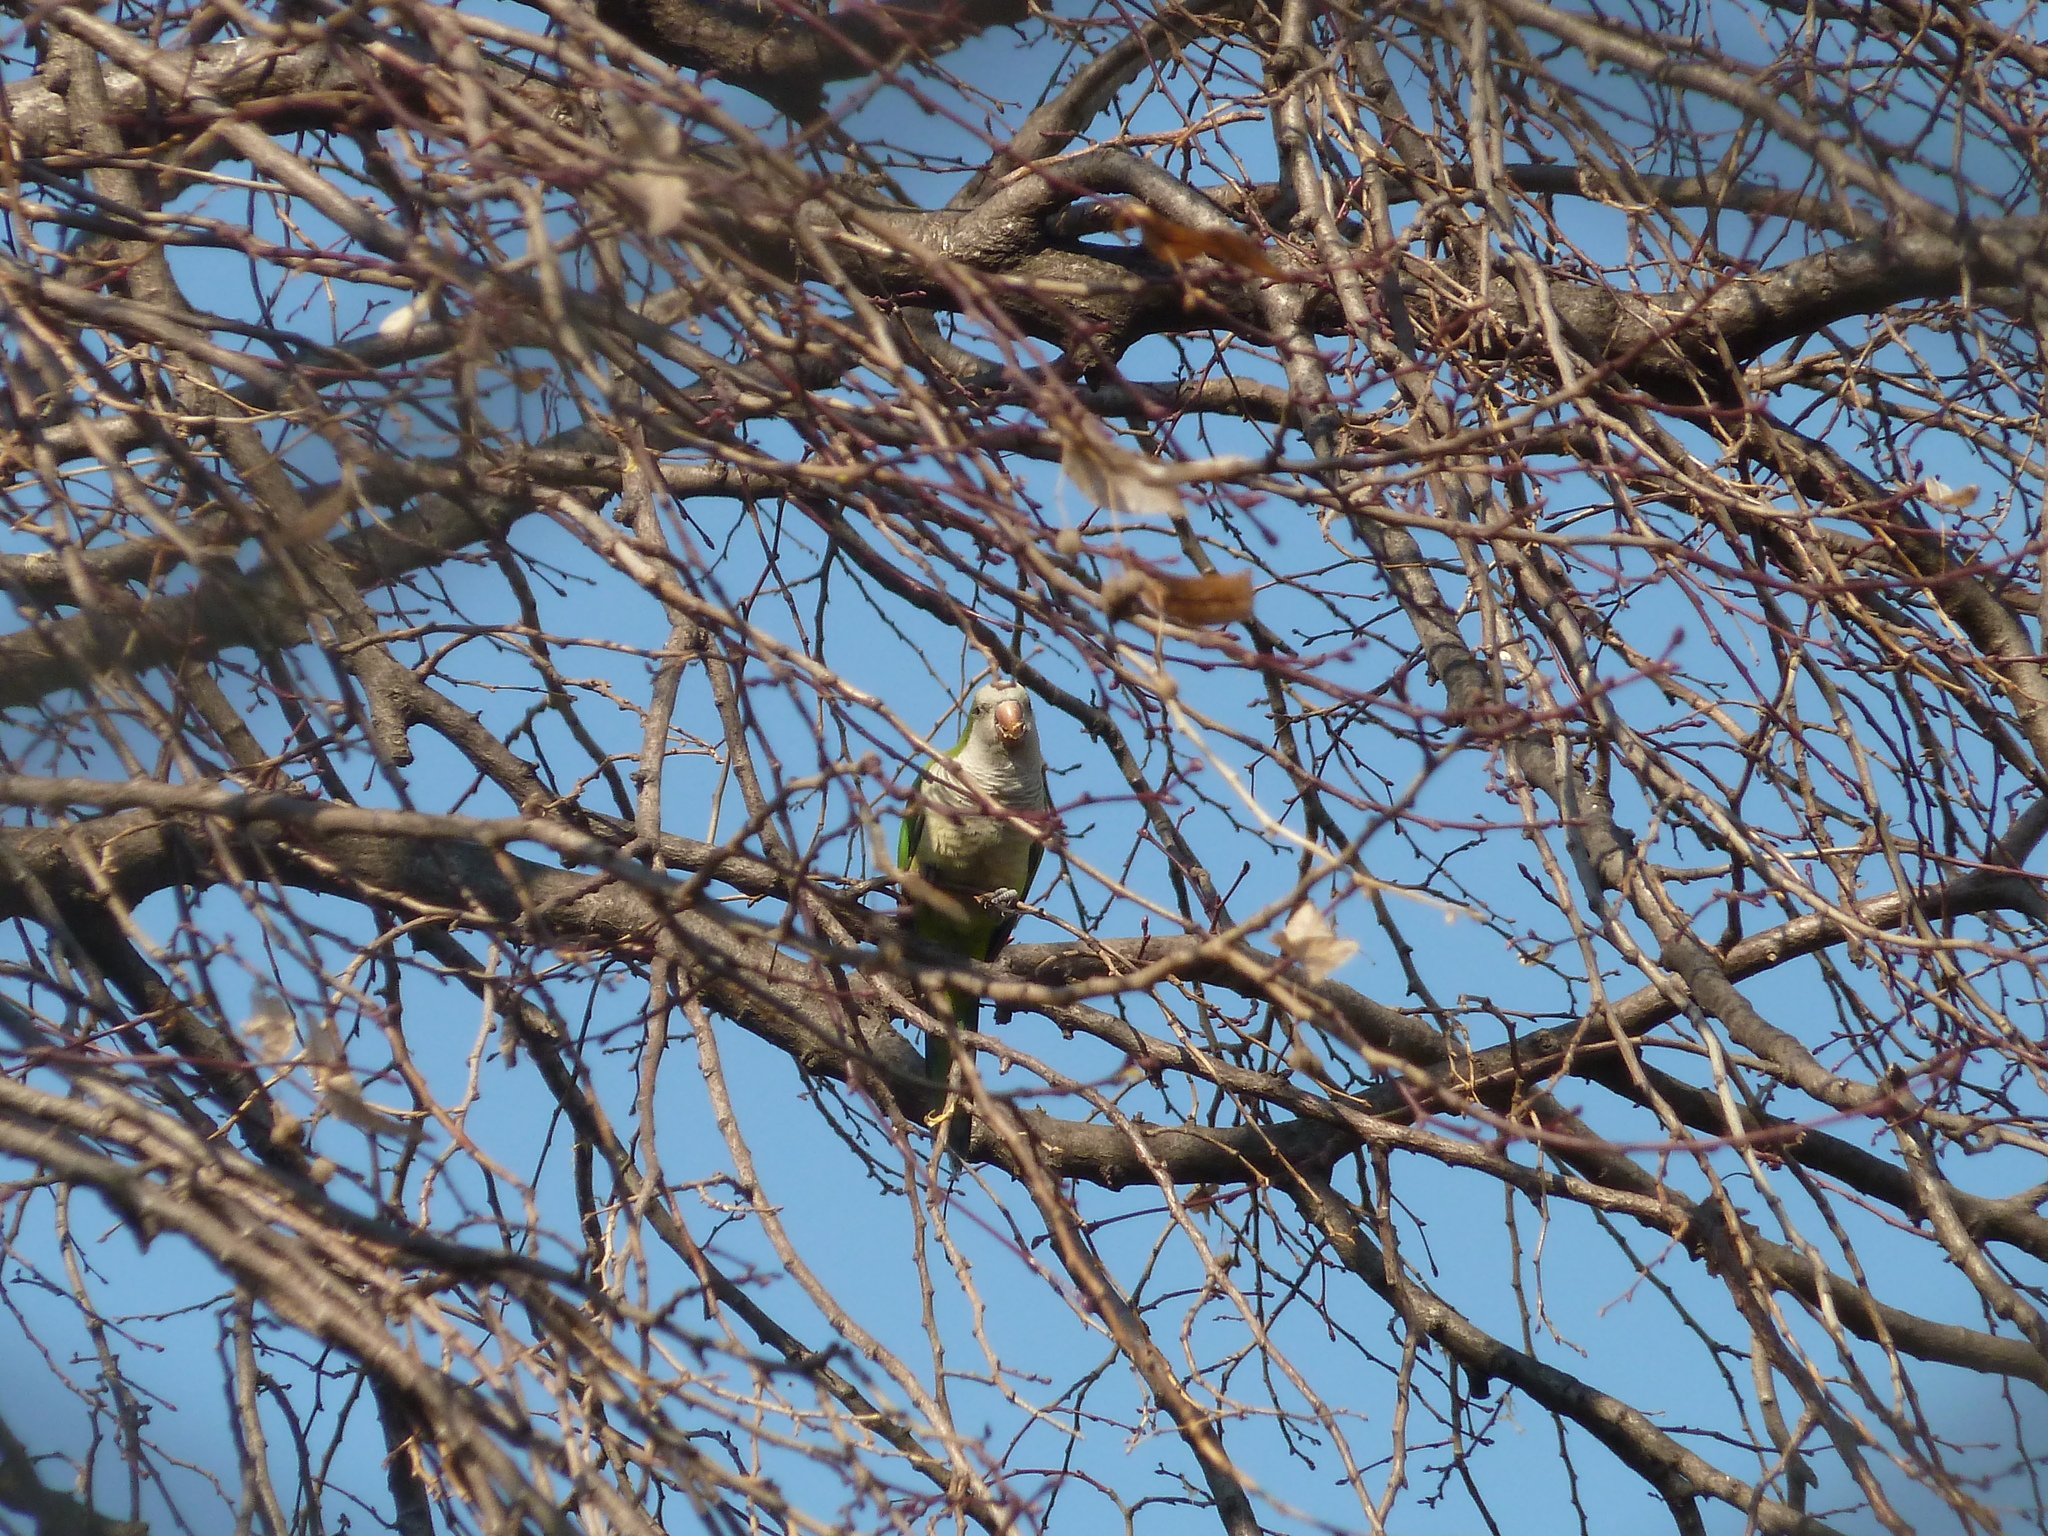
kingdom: Animalia
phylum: Chordata
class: Aves
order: Psittaciformes
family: Psittacidae
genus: Myiopsitta
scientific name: Myiopsitta monachus
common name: Monk parakeet
